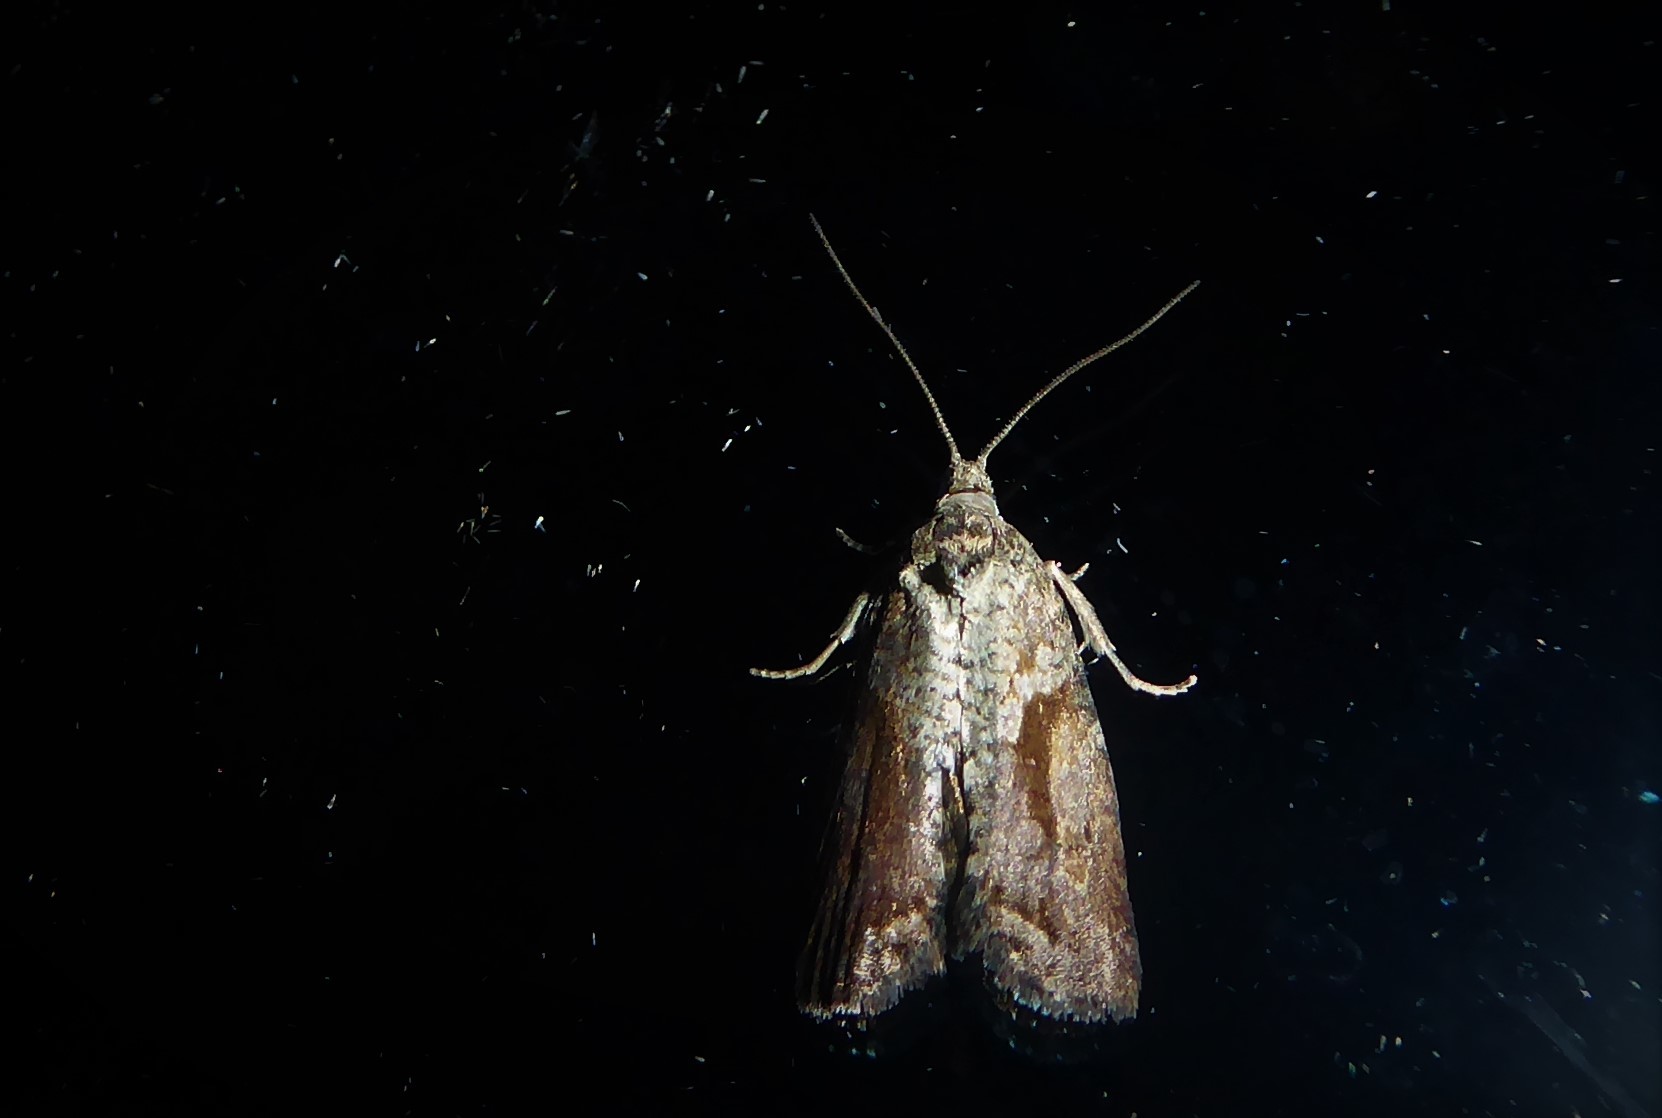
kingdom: Animalia
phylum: Arthropoda
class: Insecta
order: Lepidoptera
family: Tortricidae
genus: Harmologa
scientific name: Harmologa oblongana
